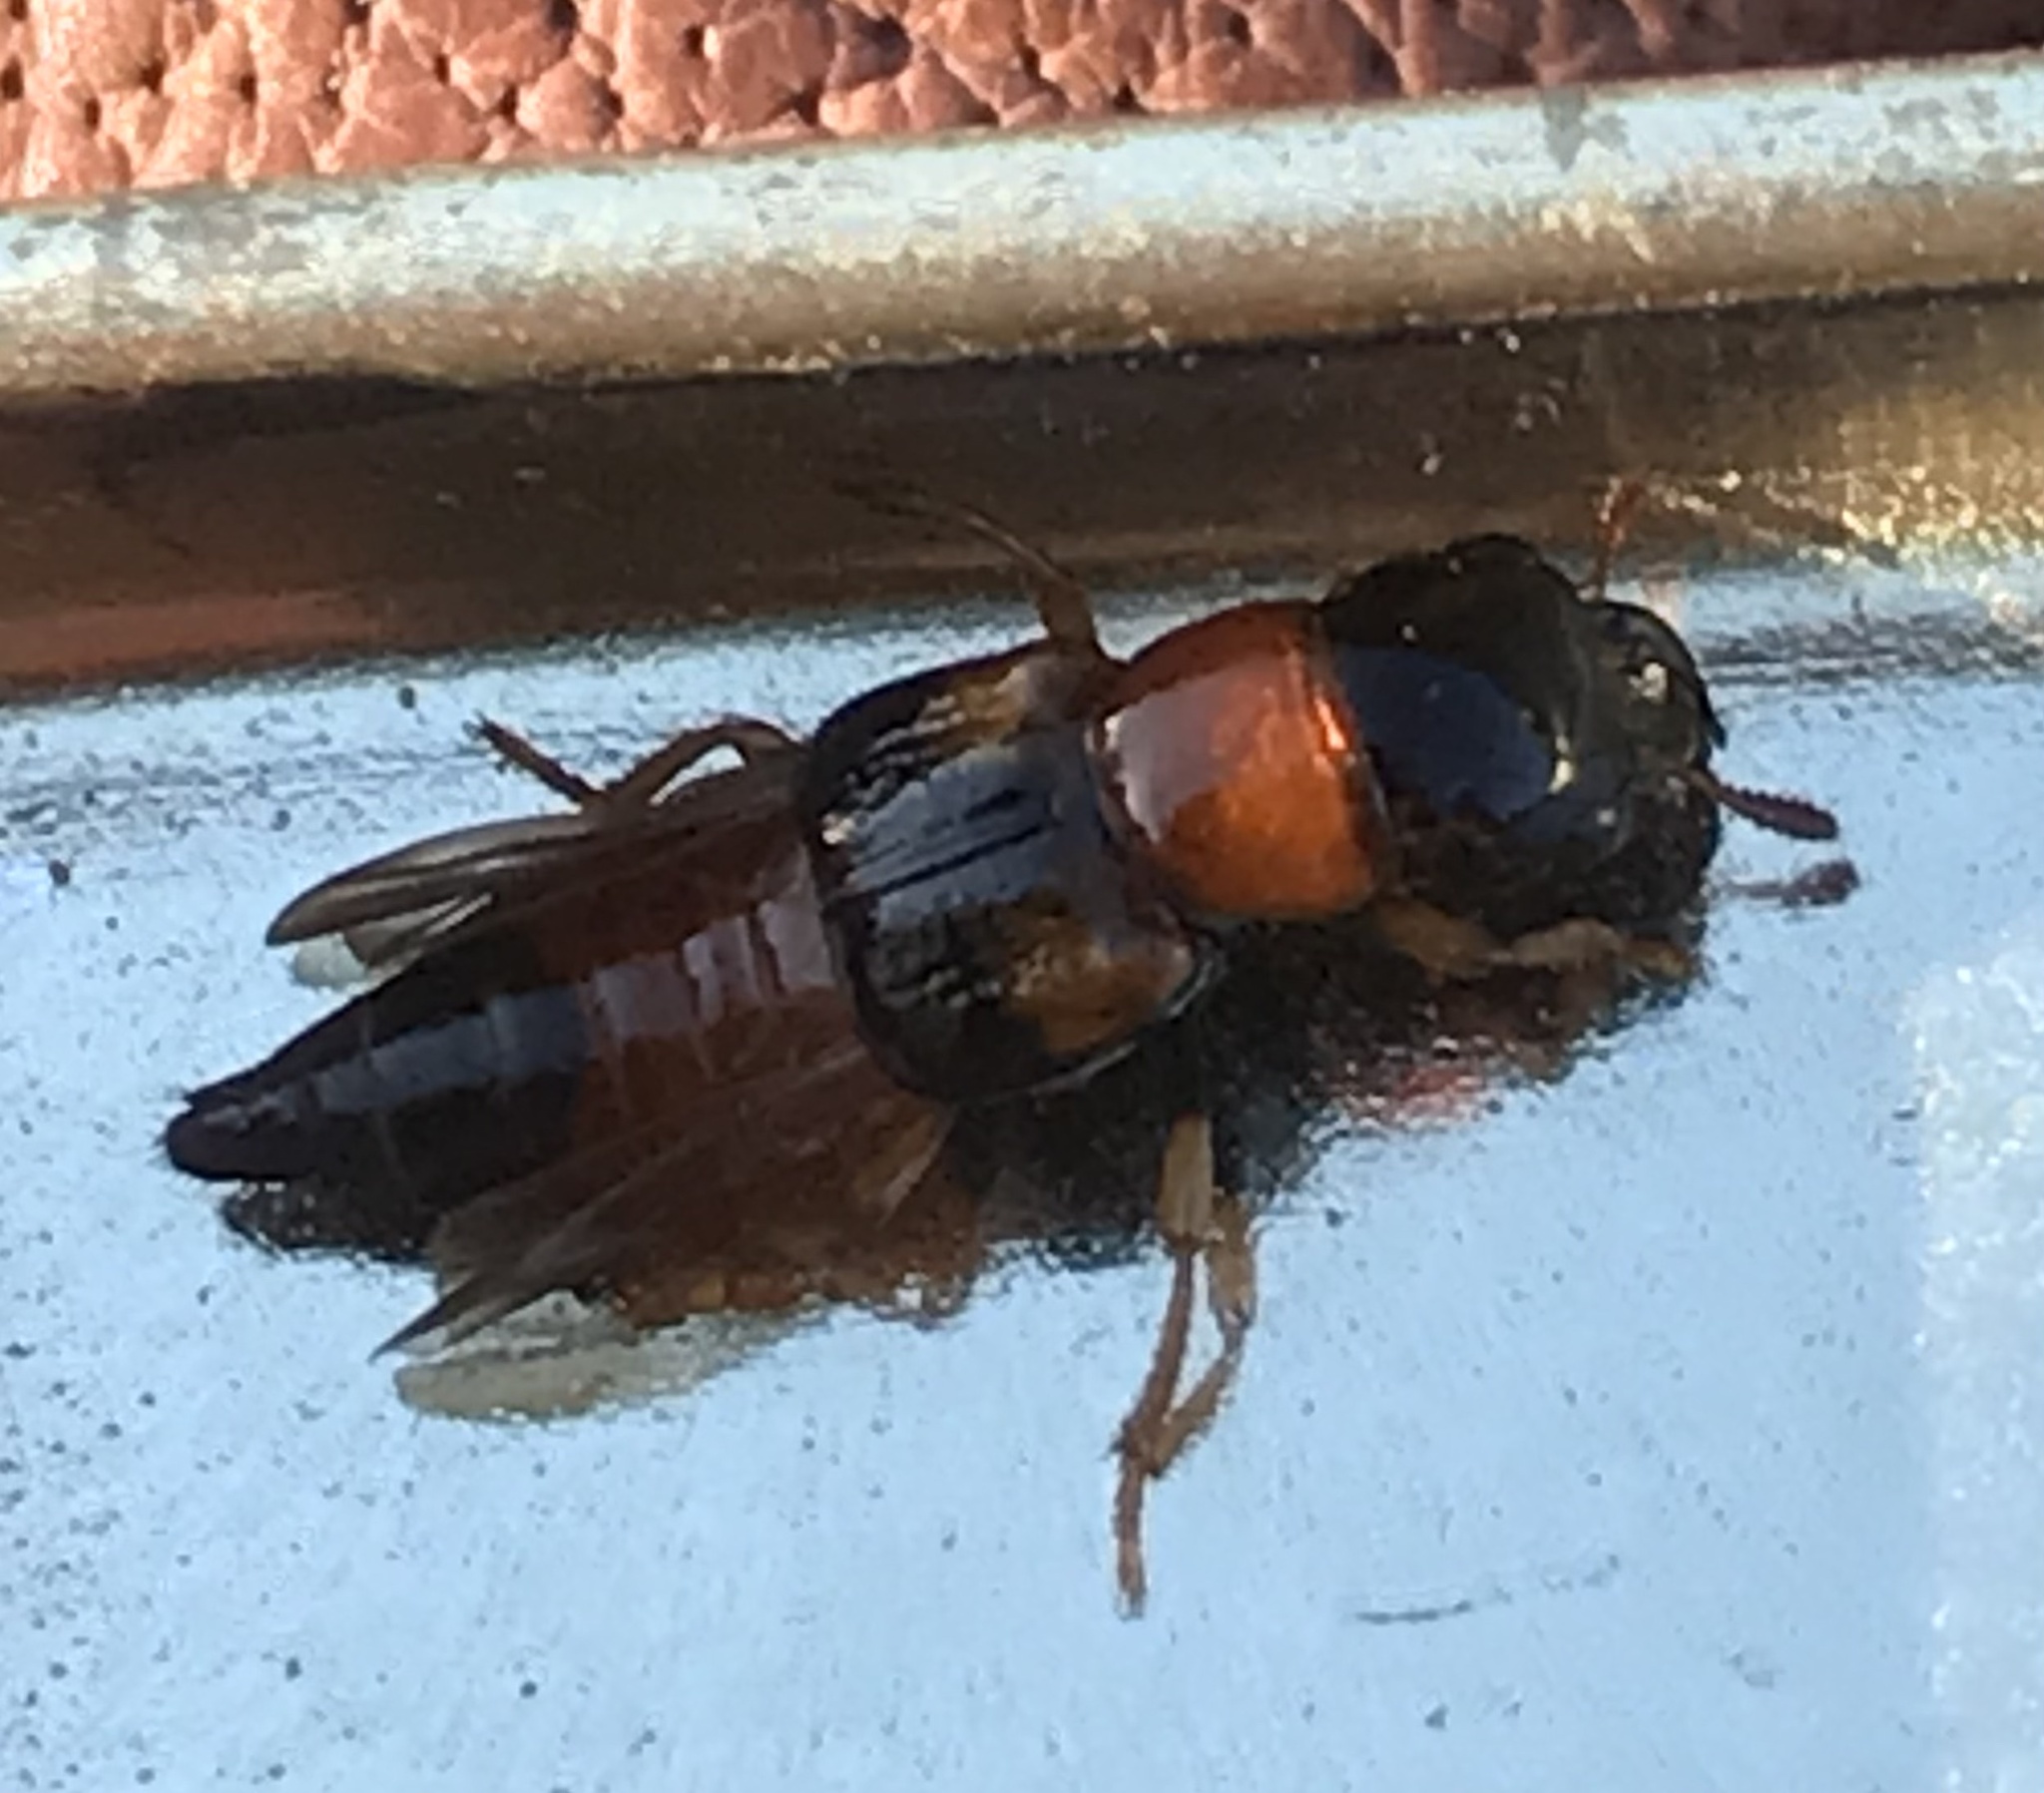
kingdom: Animalia
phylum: Arthropoda
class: Insecta
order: Coleoptera
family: Staphylinidae
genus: Oxyporus
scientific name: Oxyporus rufus
